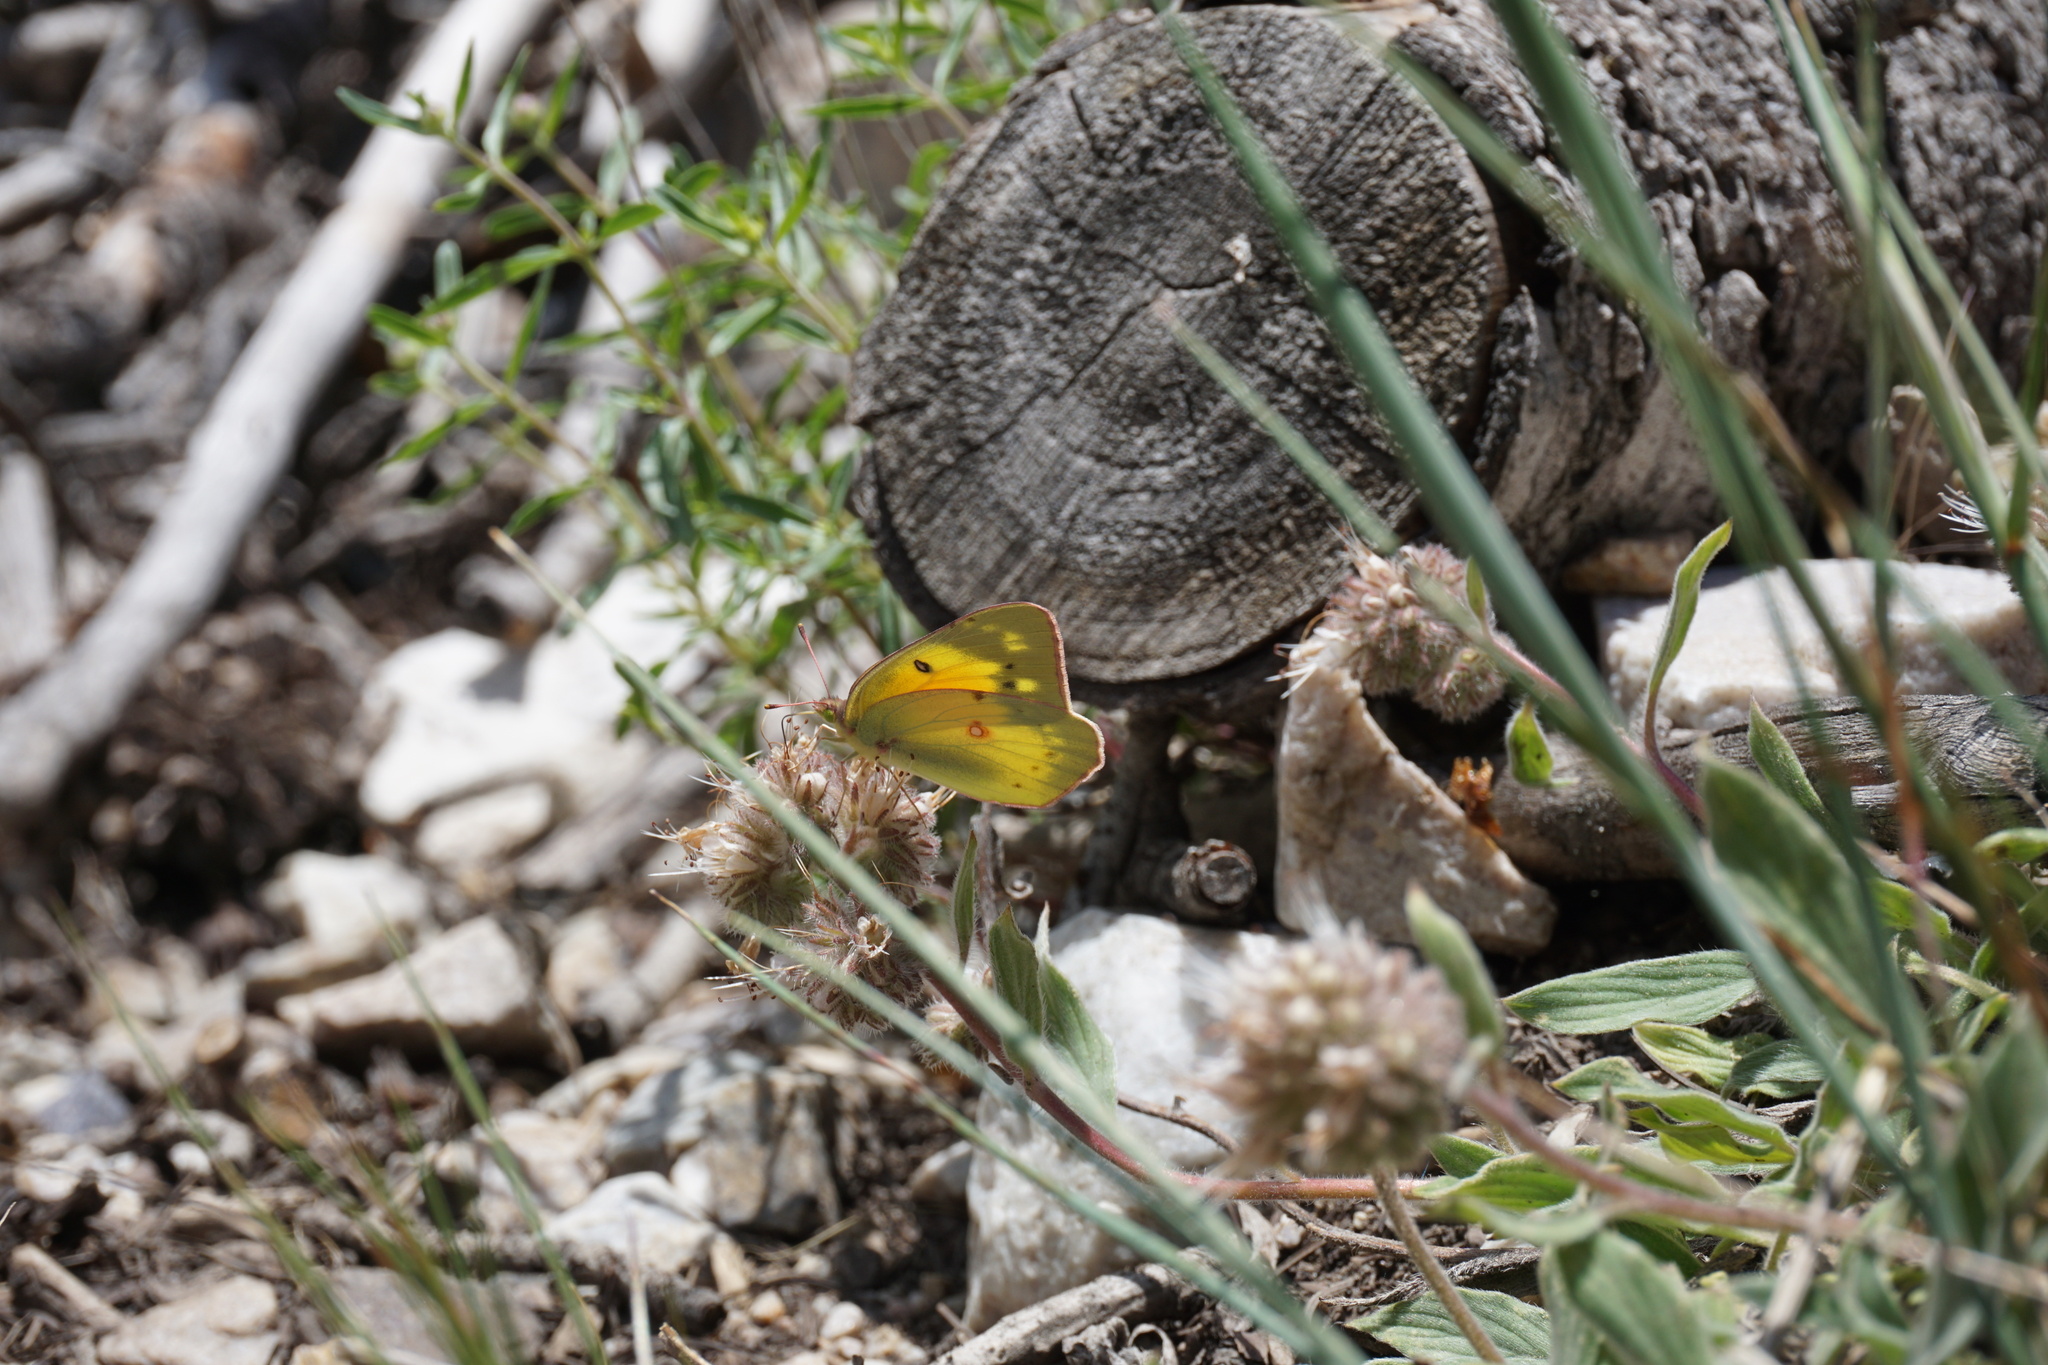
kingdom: Animalia
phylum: Arthropoda
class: Insecta
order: Lepidoptera
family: Pieridae
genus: Colias
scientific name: Colias eurytheme
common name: Alfalfa butterfly
